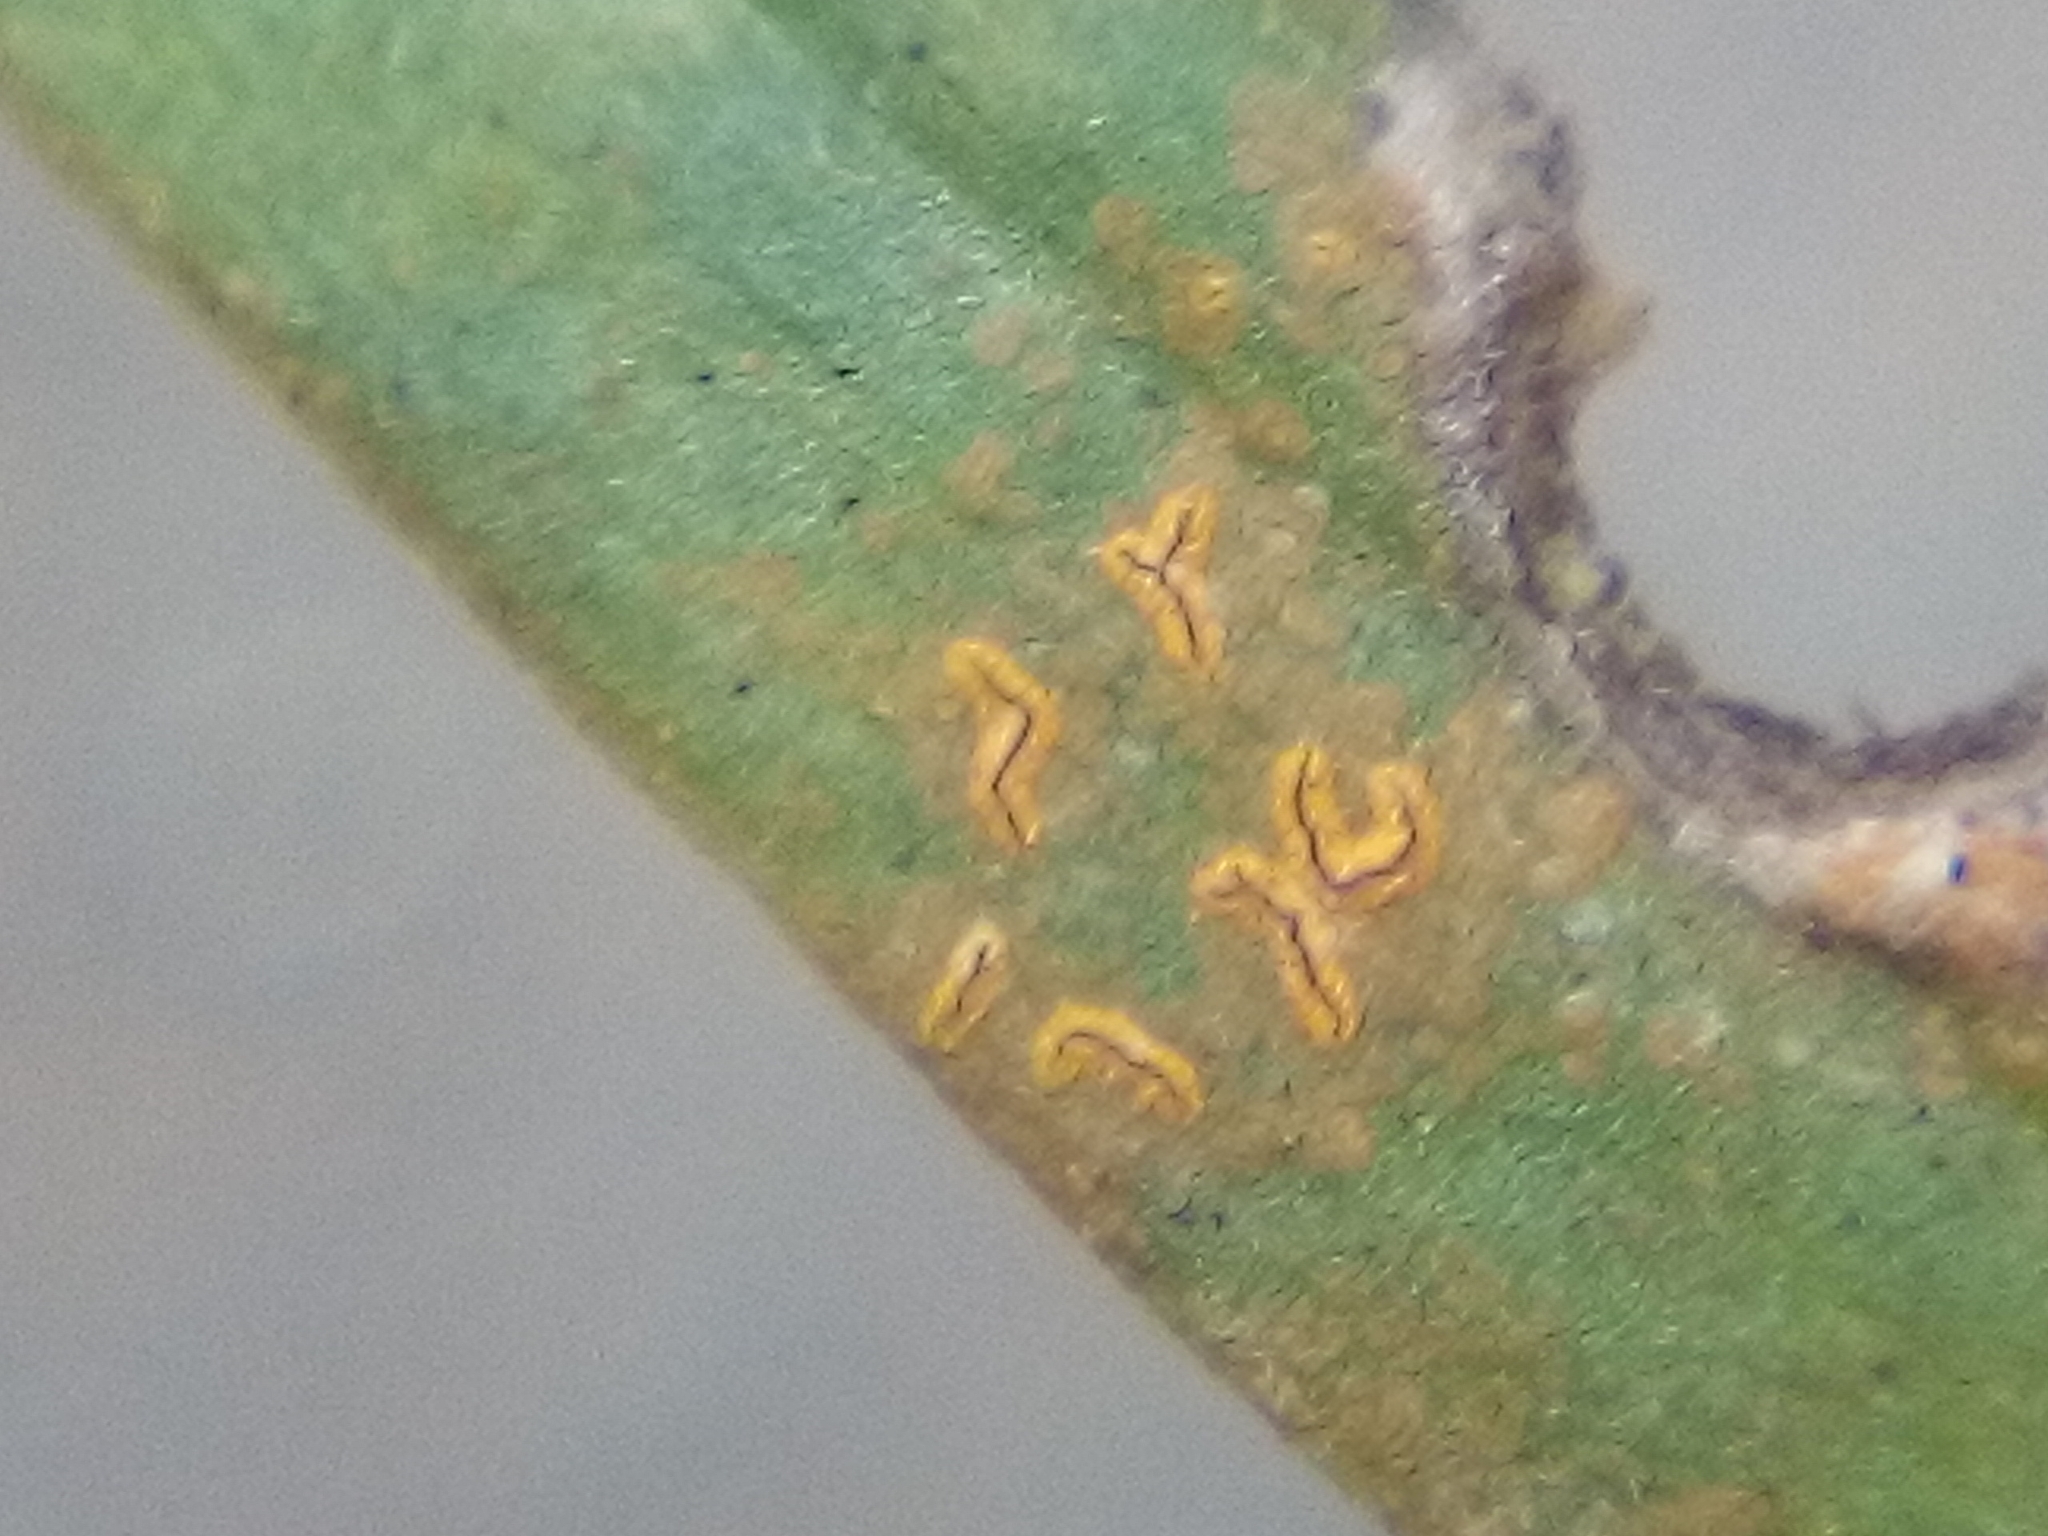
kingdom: Fungi
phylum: Ascomycota
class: Arthoniomycetes
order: Arthoniales
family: Roccellaceae
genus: Enterographa
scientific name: Enterographa bella
